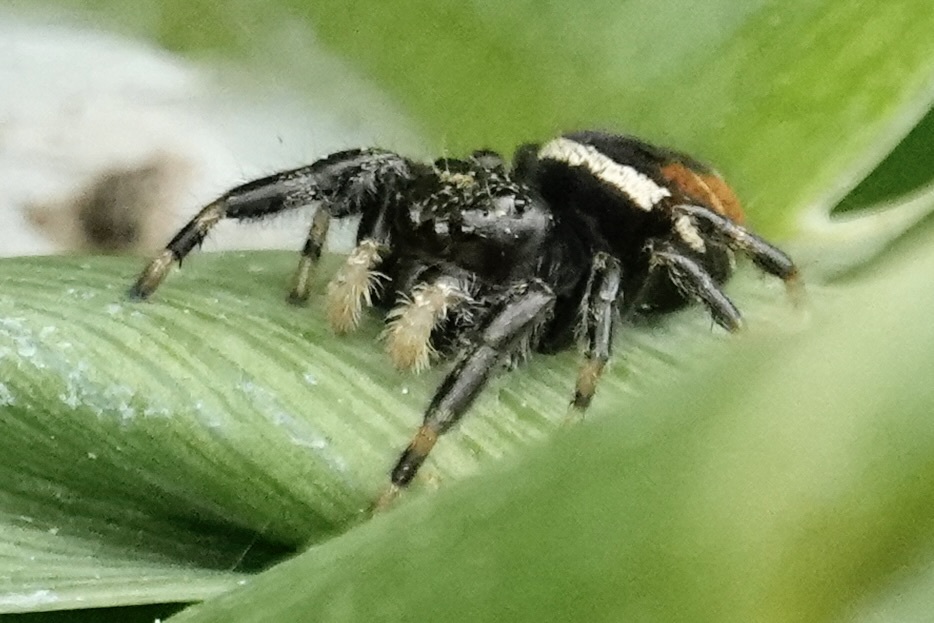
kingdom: Animalia
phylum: Arthropoda
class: Arachnida
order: Araneae
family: Salticidae
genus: Phidippus
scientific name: Phidippus clarus
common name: Brilliant jumping spider
